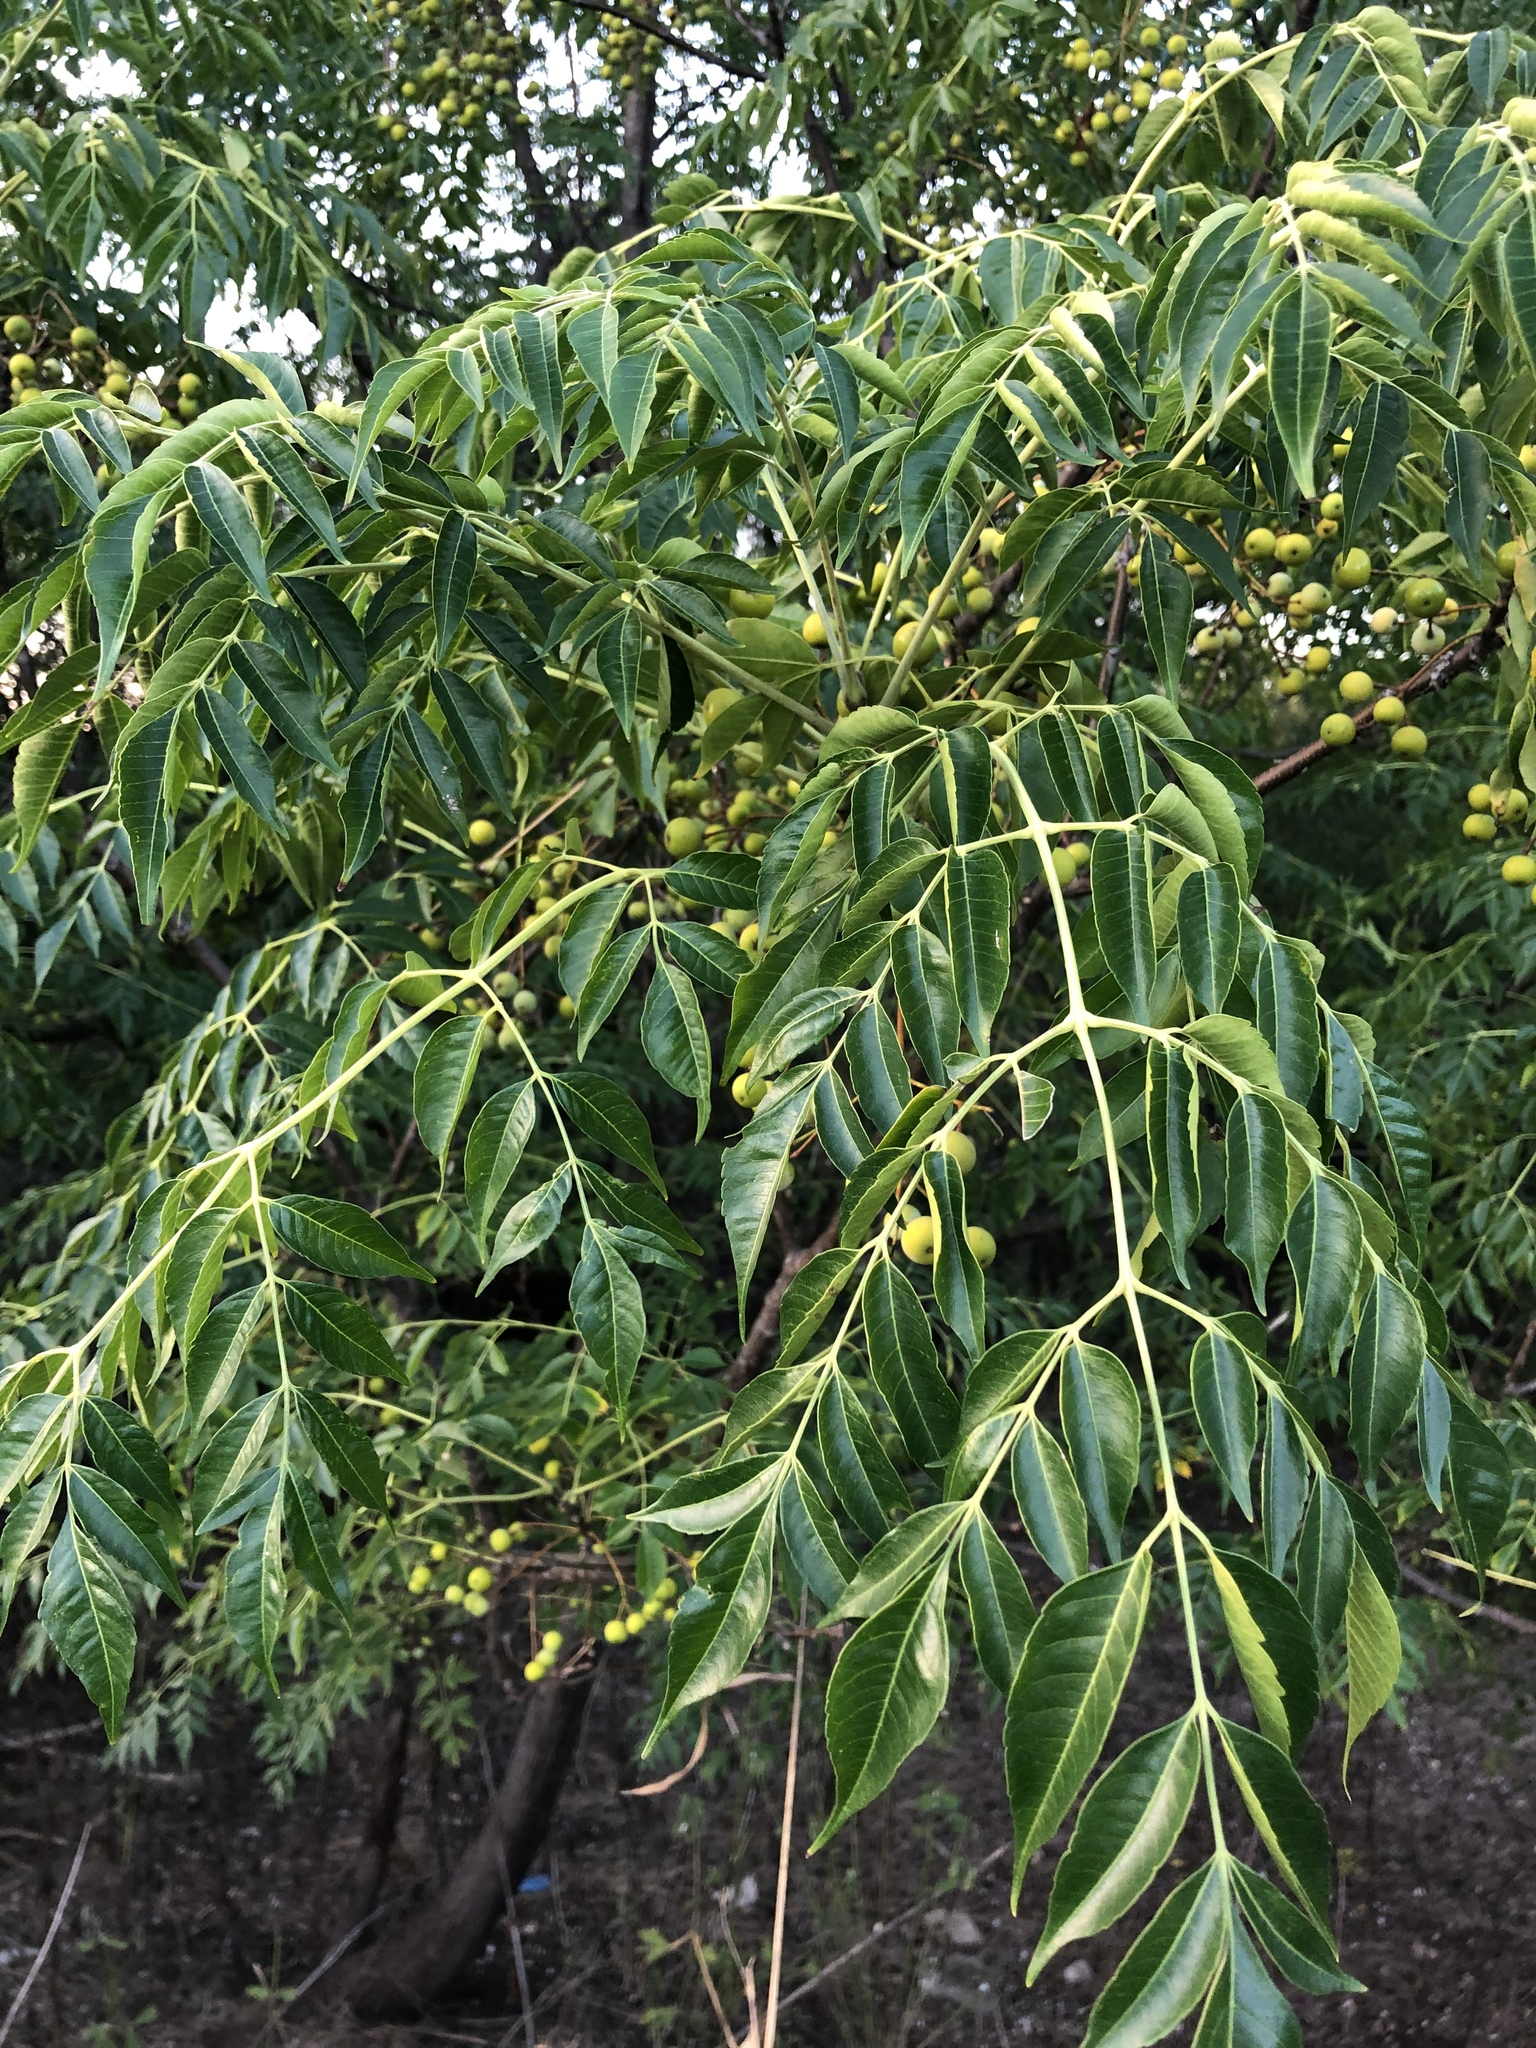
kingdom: Plantae
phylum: Tracheophyta
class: Magnoliopsida
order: Sapindales
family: Meliaceae
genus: Melia
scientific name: Melia azedarach
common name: Chinaberrytree
